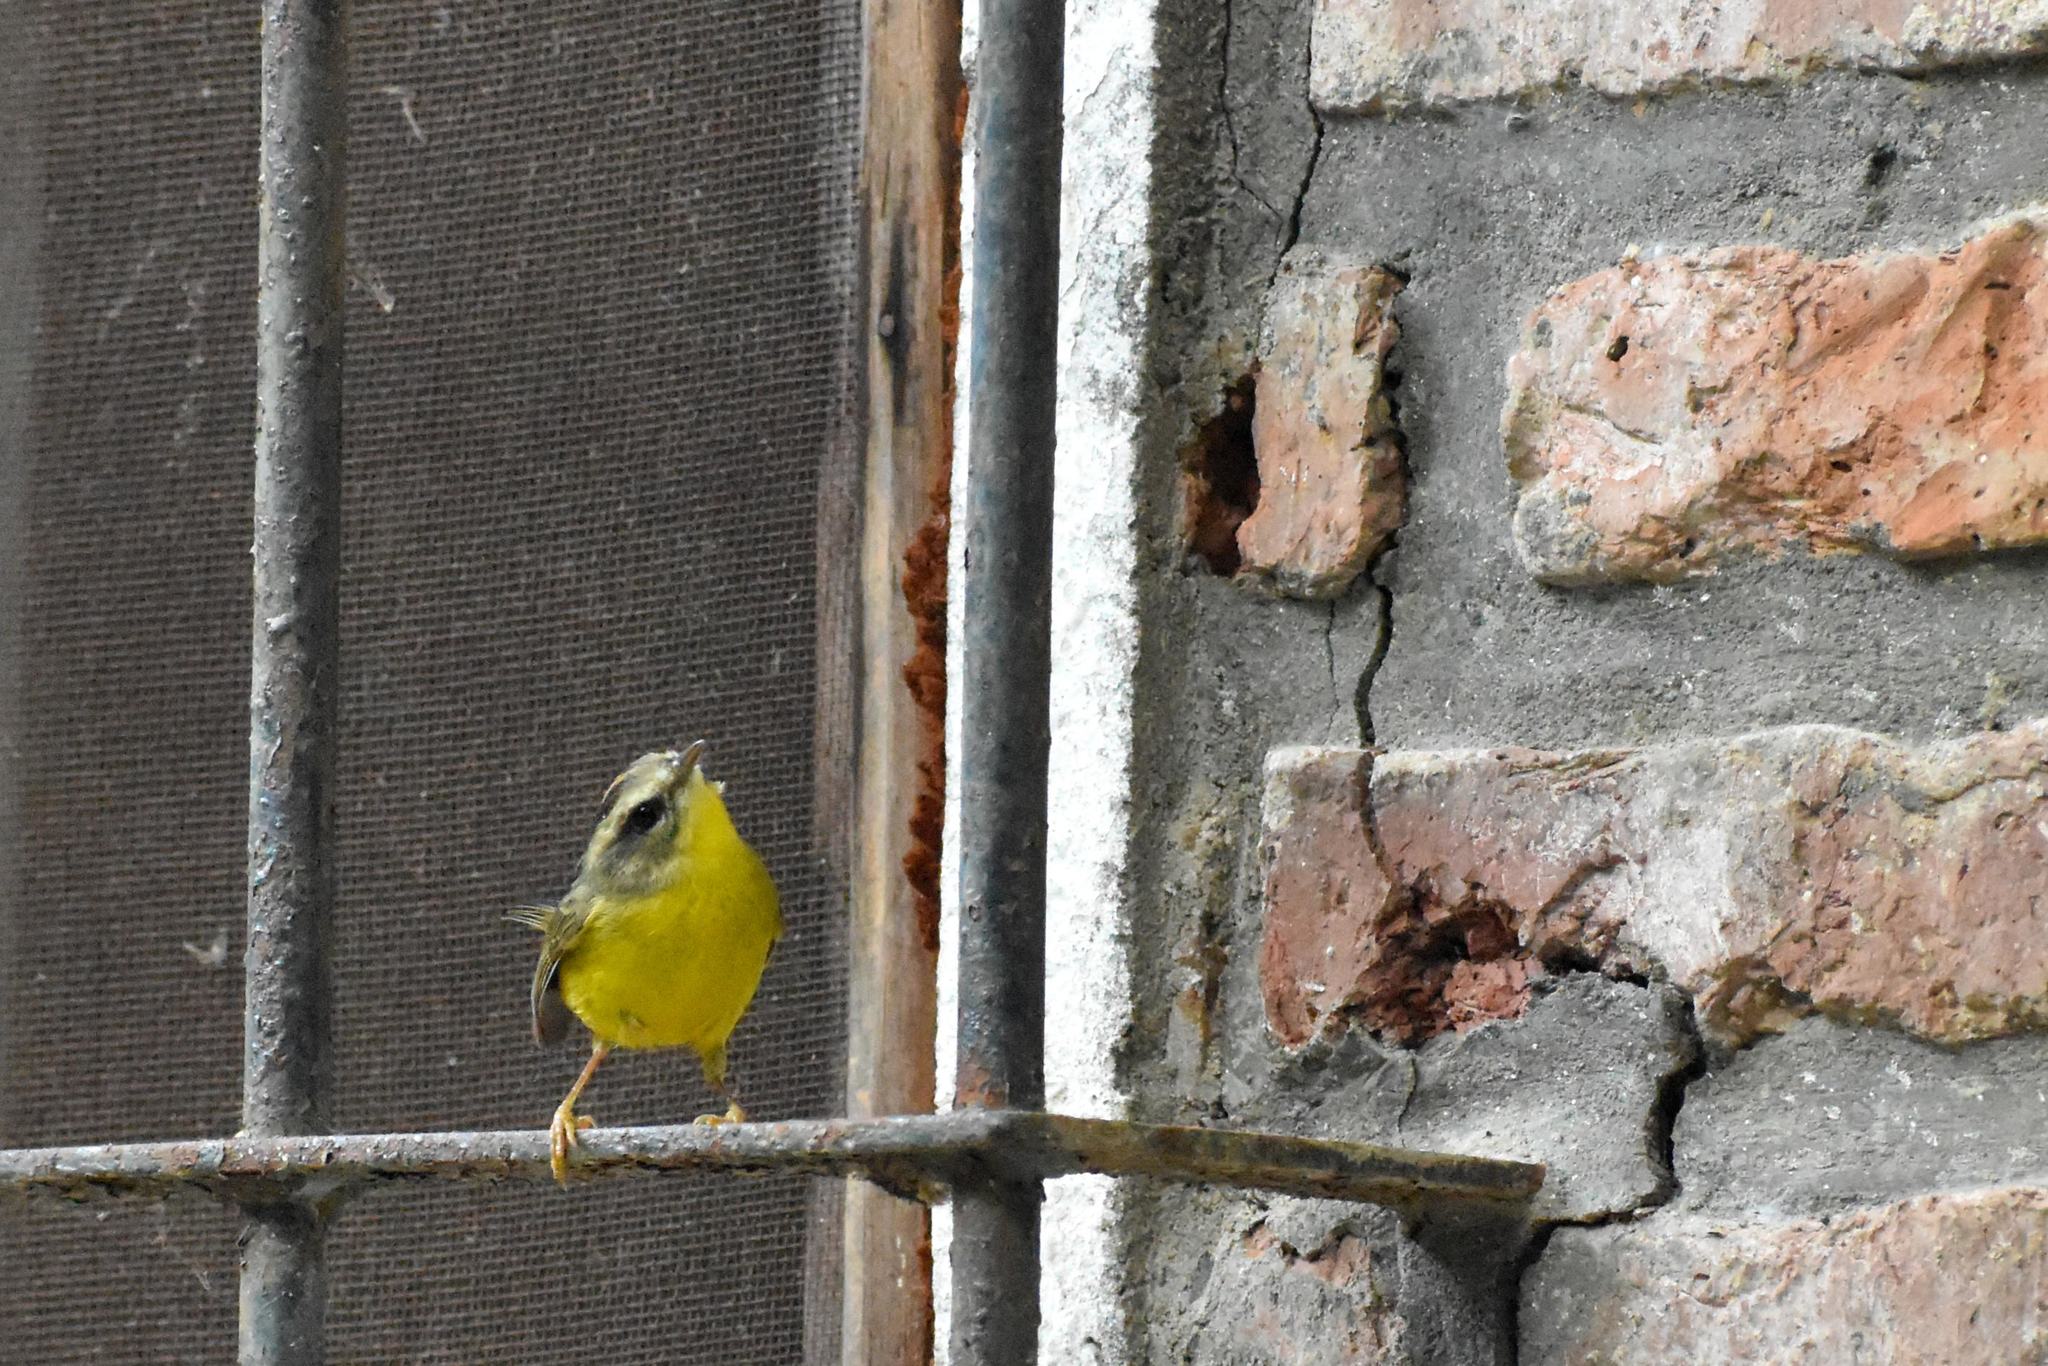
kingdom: Animalia
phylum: Chordata
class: Aves
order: Passeriformes
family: Parulidae
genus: Basileuterus
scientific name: Basileuterus culicivorus
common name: Golden-crowned warbler
